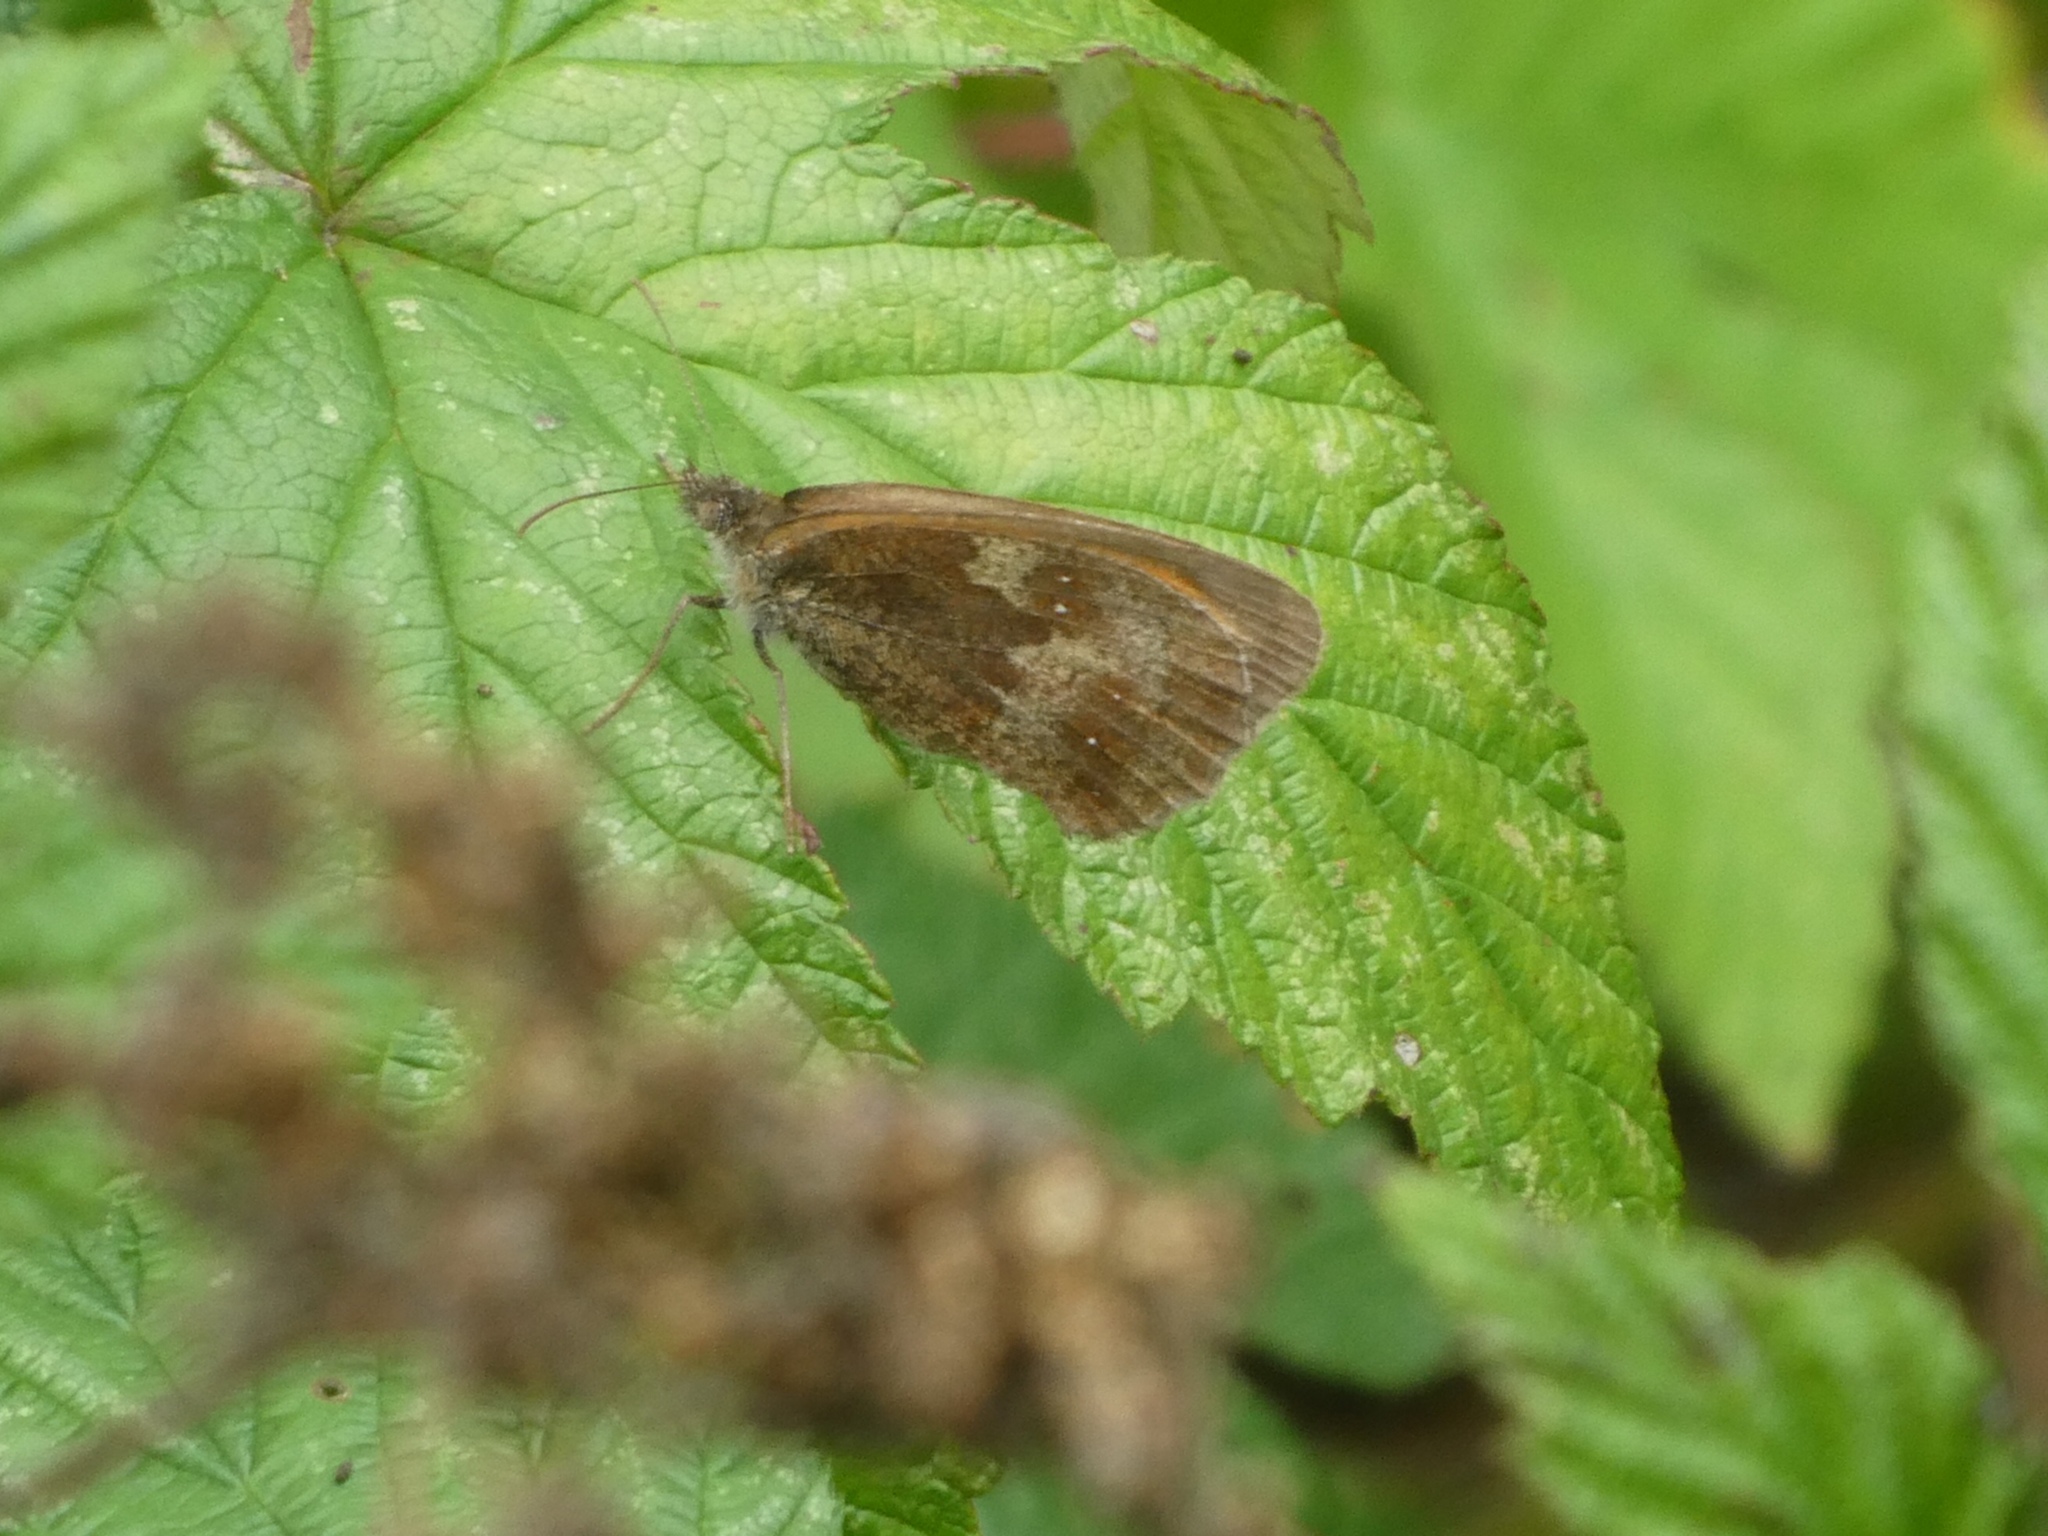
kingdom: Animalia
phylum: Arthropoda
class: Insecta
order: Lepidoptera
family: Nymphalidae
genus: Pyronia
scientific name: Pyronia tithonus
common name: Gatekeeper
